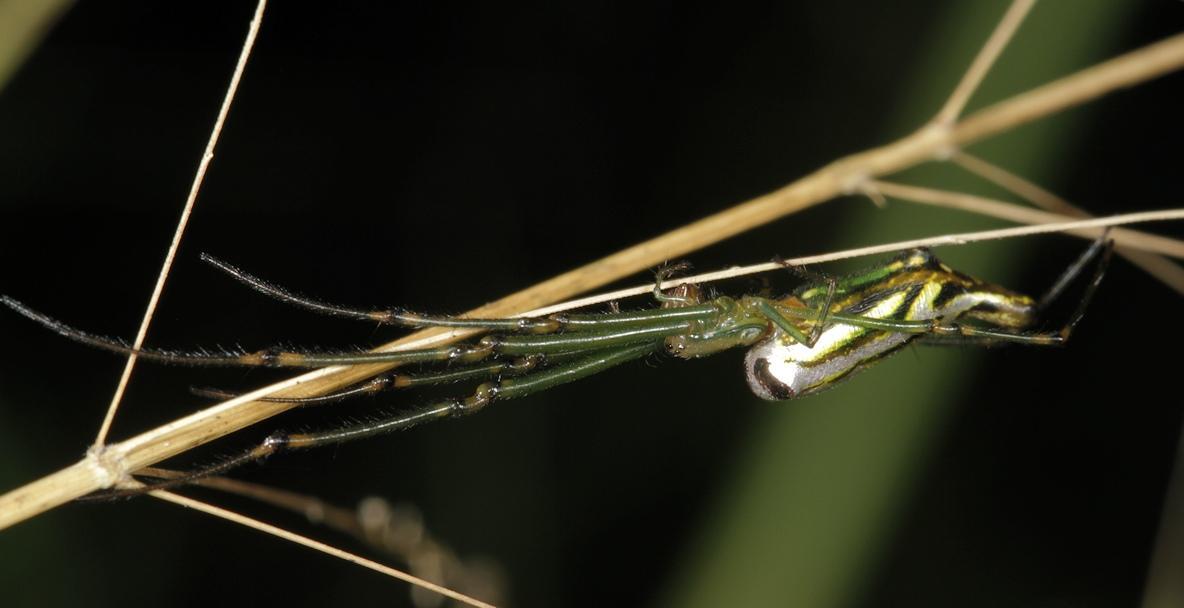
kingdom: Animalia
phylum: Arthropoda
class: Arachnida
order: Araneae
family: Tetragnathidae
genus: Leucauge
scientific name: Leucauge kibonotensis
